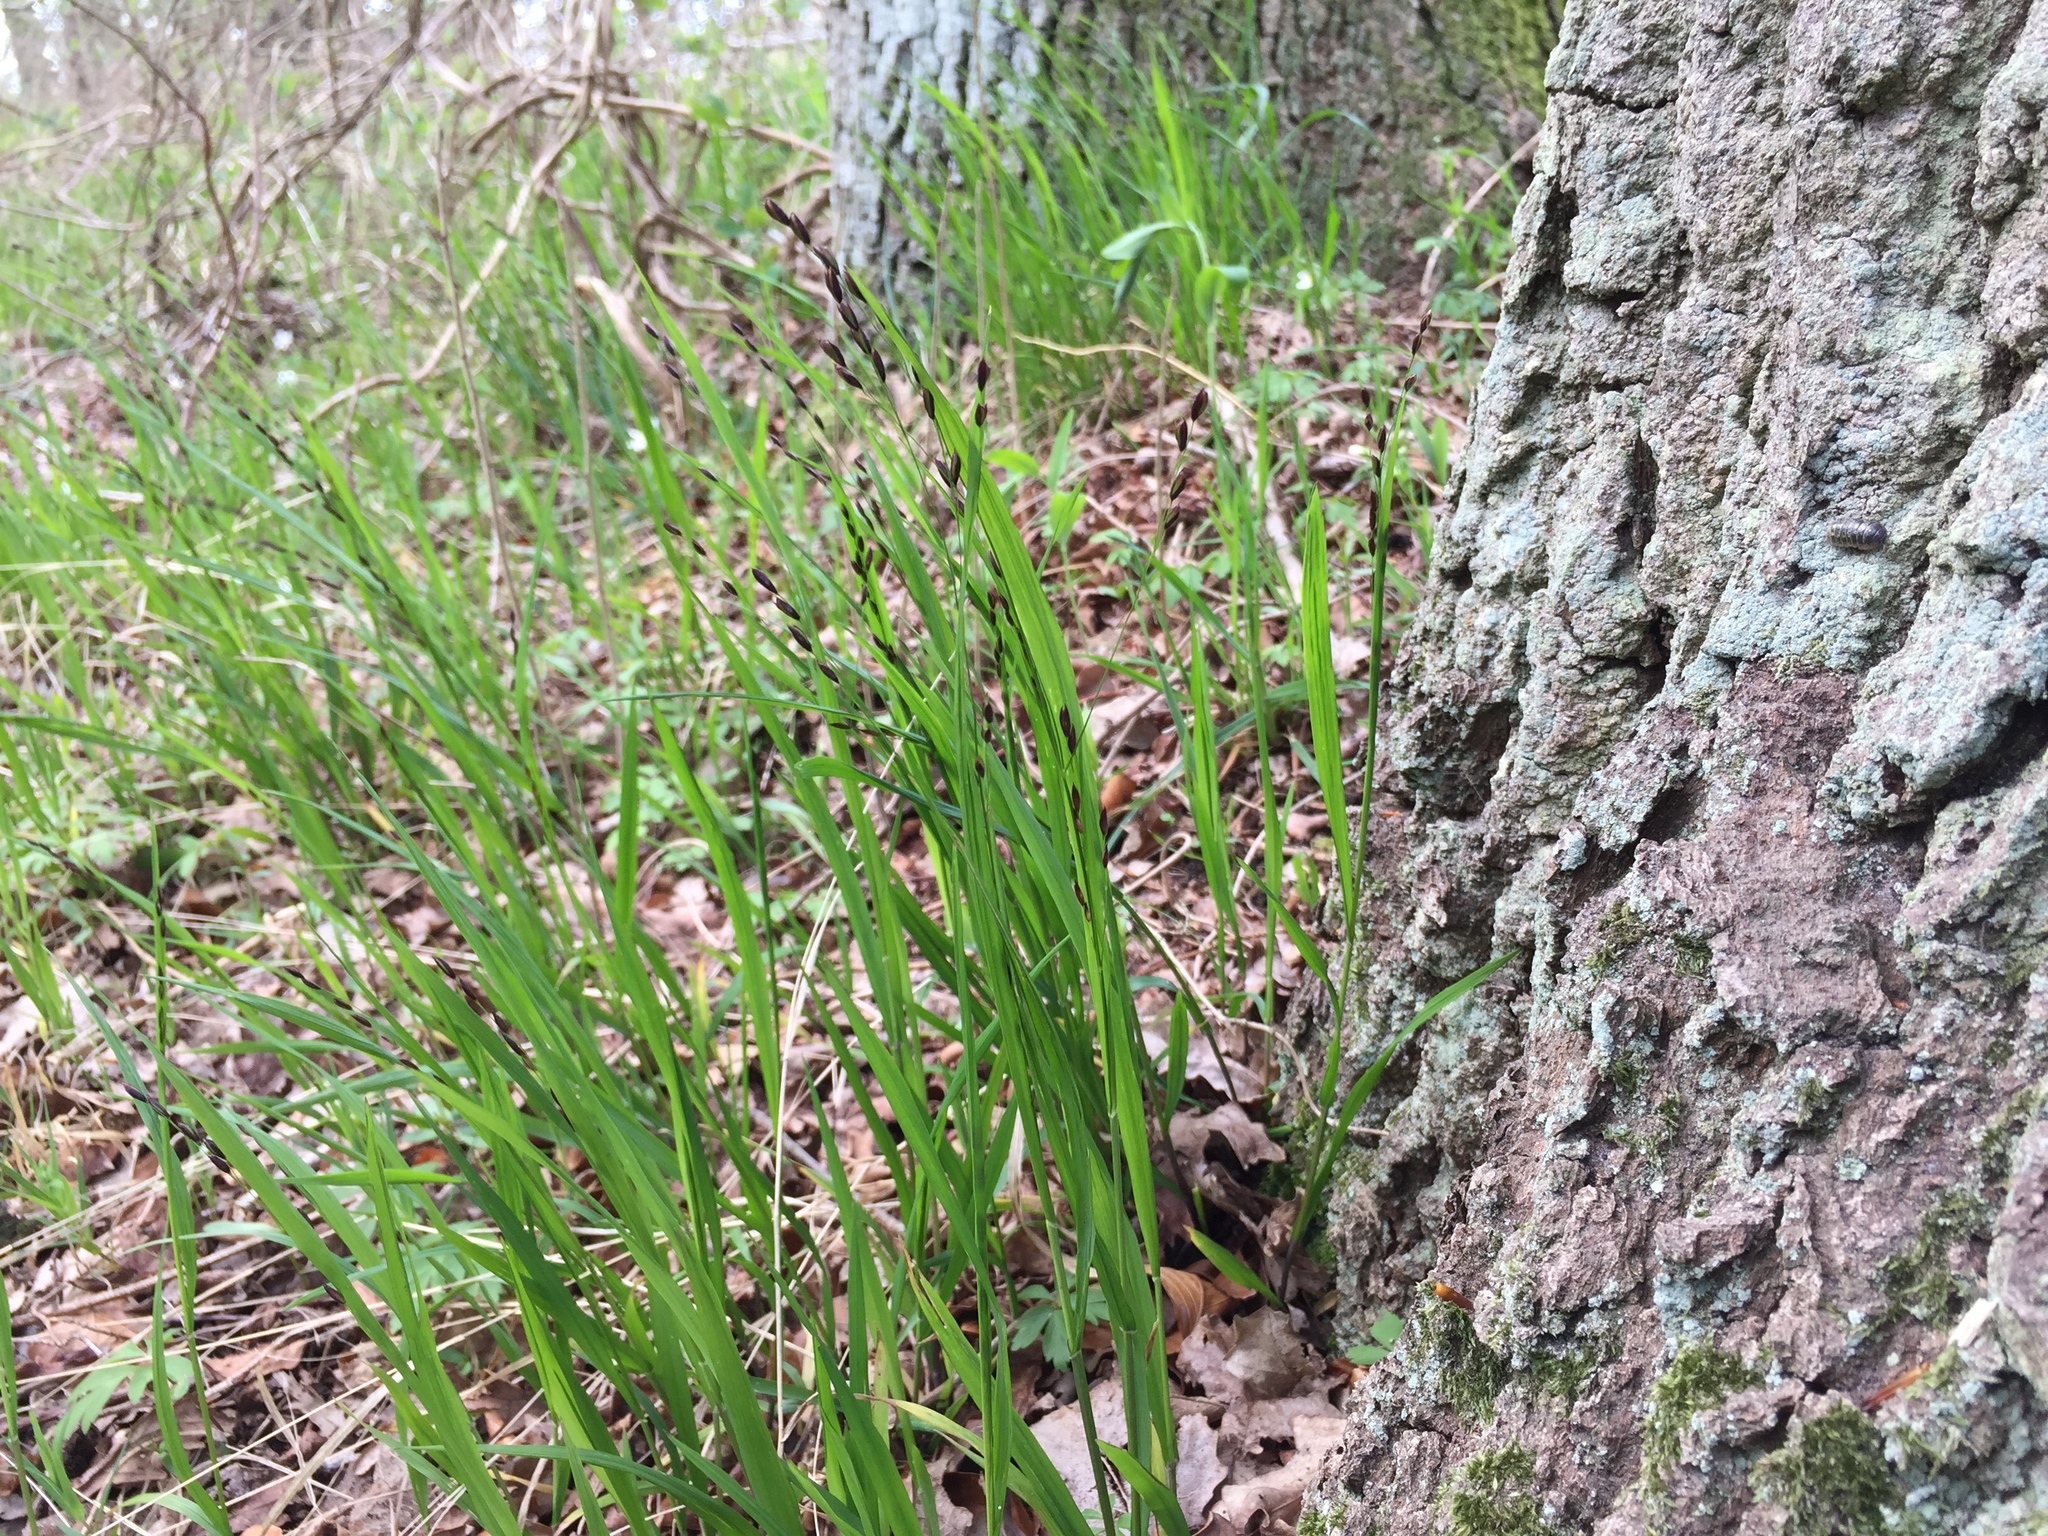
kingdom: Plantae
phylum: Tracheophyta
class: Liliopsida
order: Poales
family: Poaceae
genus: Melica
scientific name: Melica uniflora
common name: Wood melick
